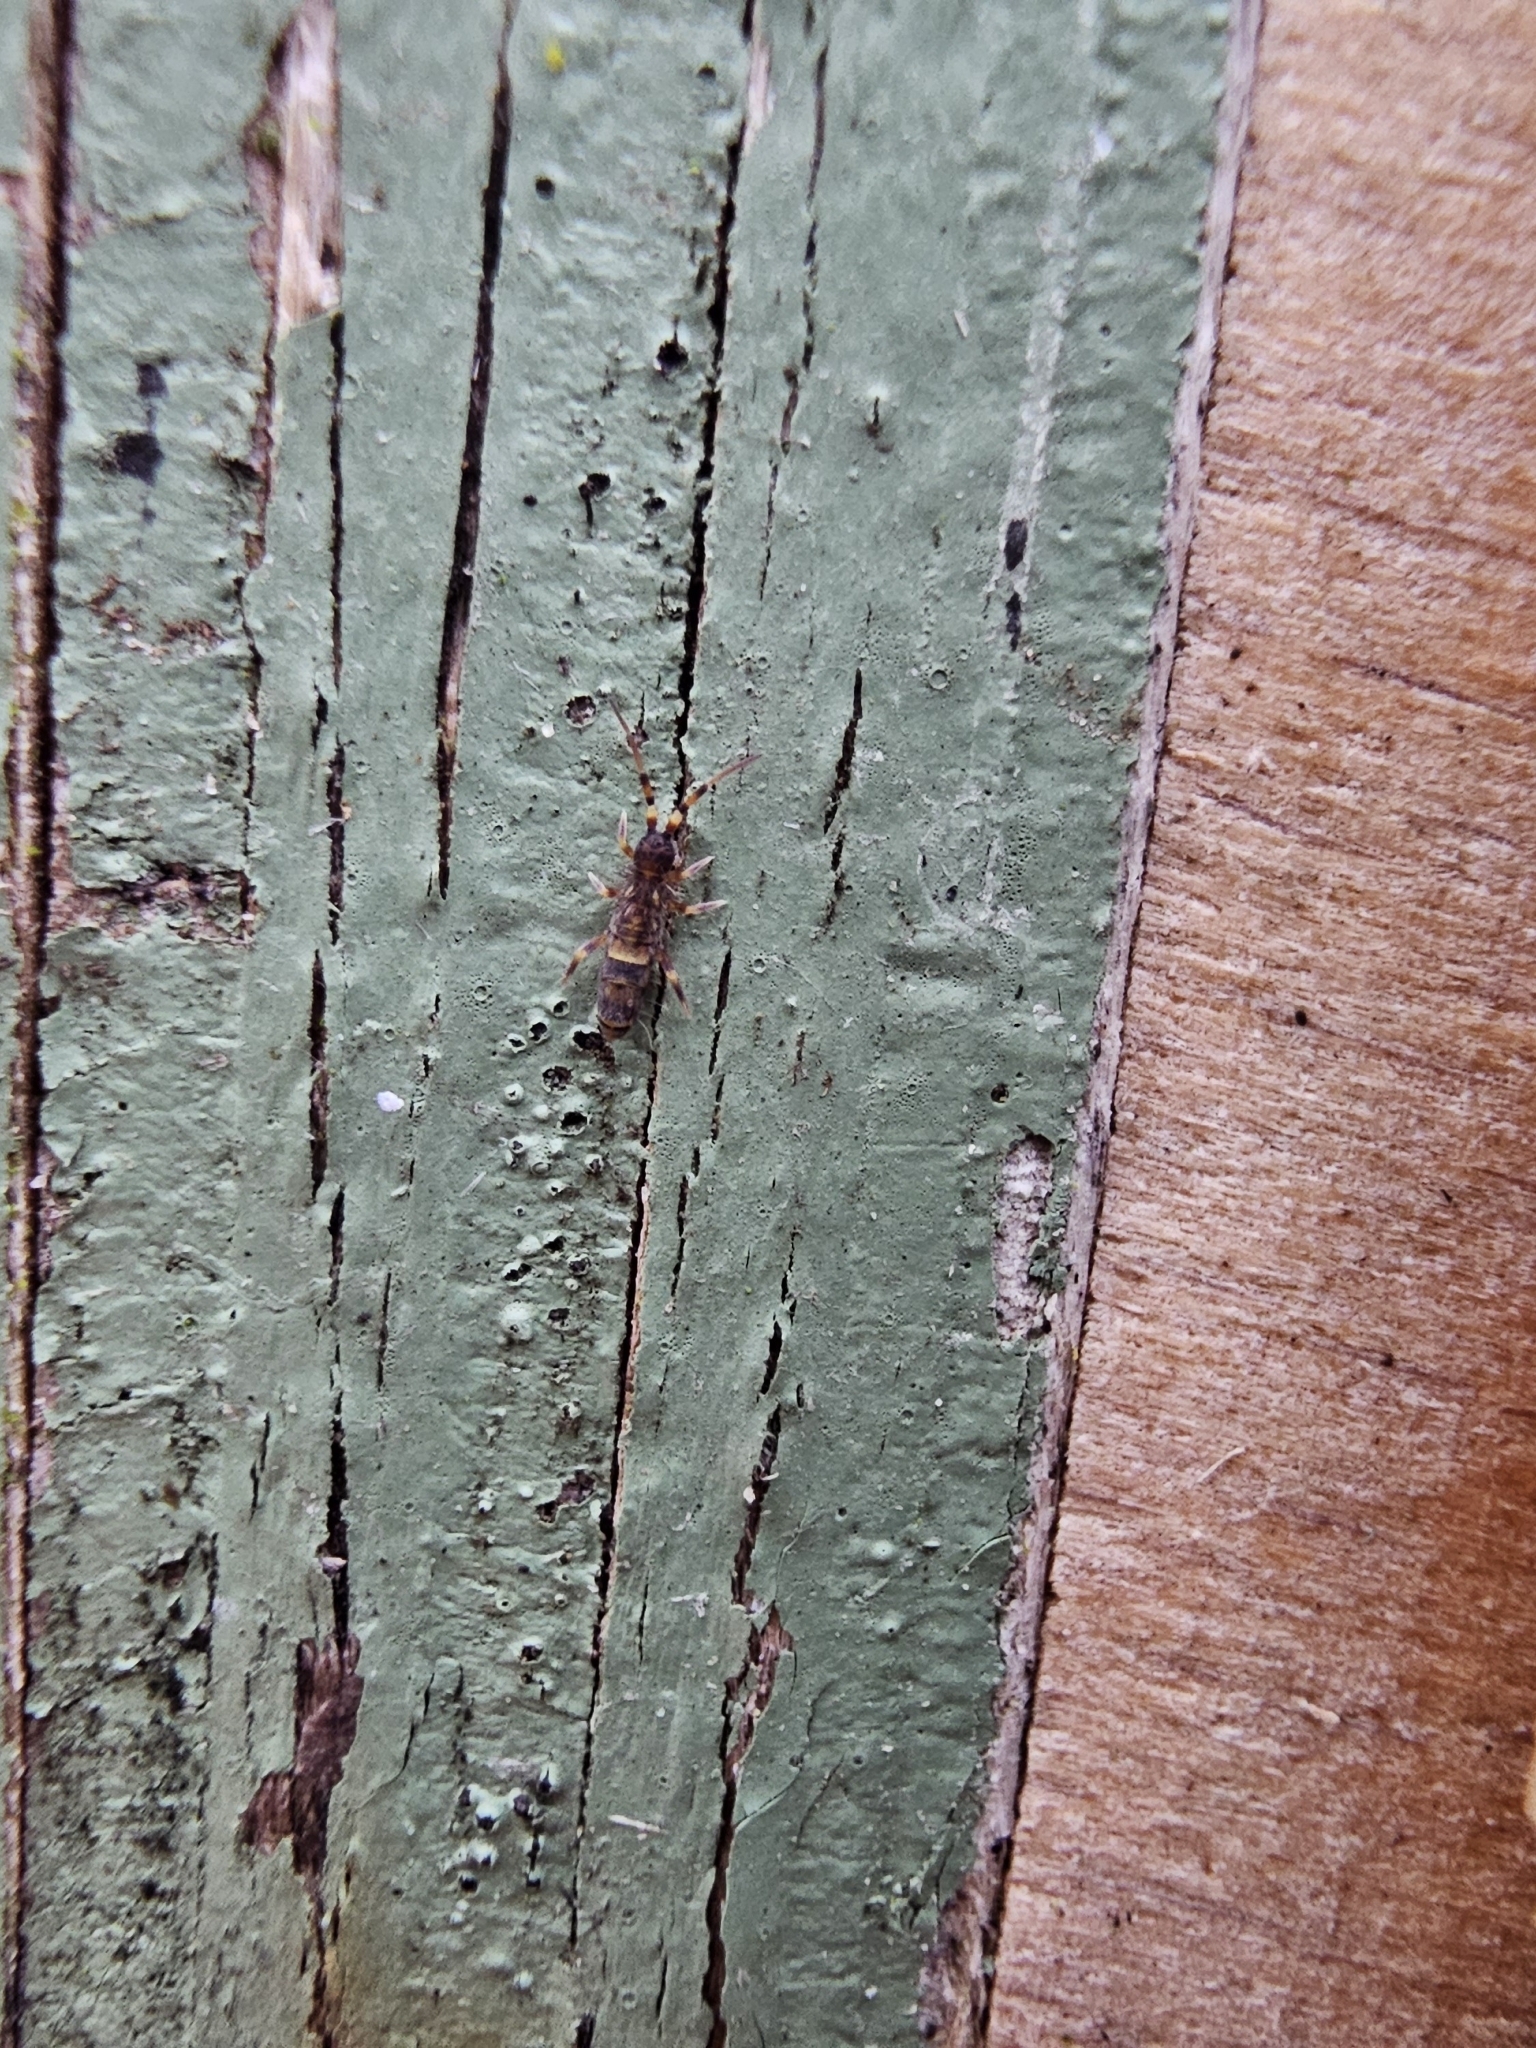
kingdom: Animalia
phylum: Arthropoda
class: Collembola
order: Entomobryomorpha
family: Orchesellidae
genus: Orchesella
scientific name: Orchesella cincta
